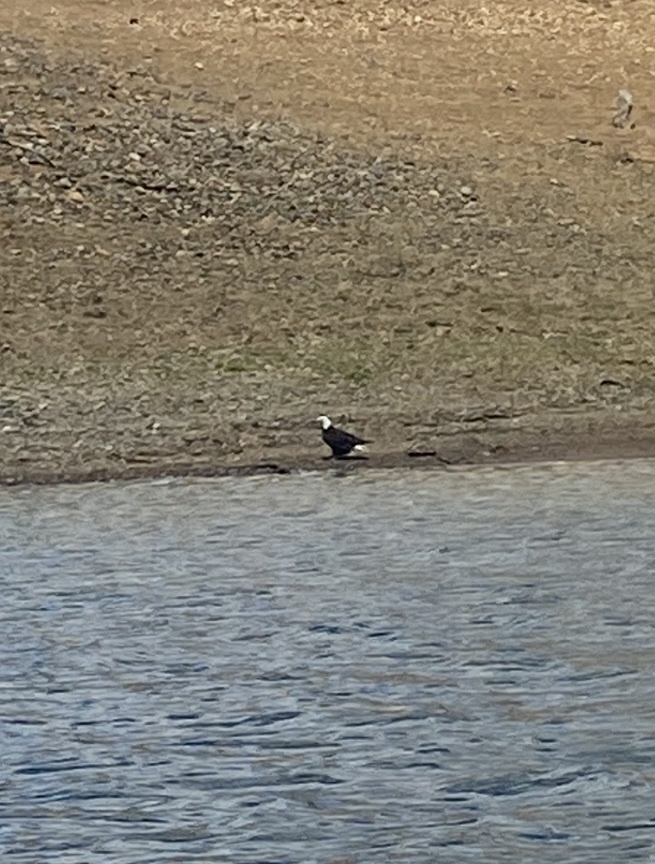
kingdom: Animalia
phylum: Chordata
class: Aves
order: Accipitriformes
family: Accipitridae
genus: Haliaeetus
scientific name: Haliaeetus leucocephalus
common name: Bald eagle
